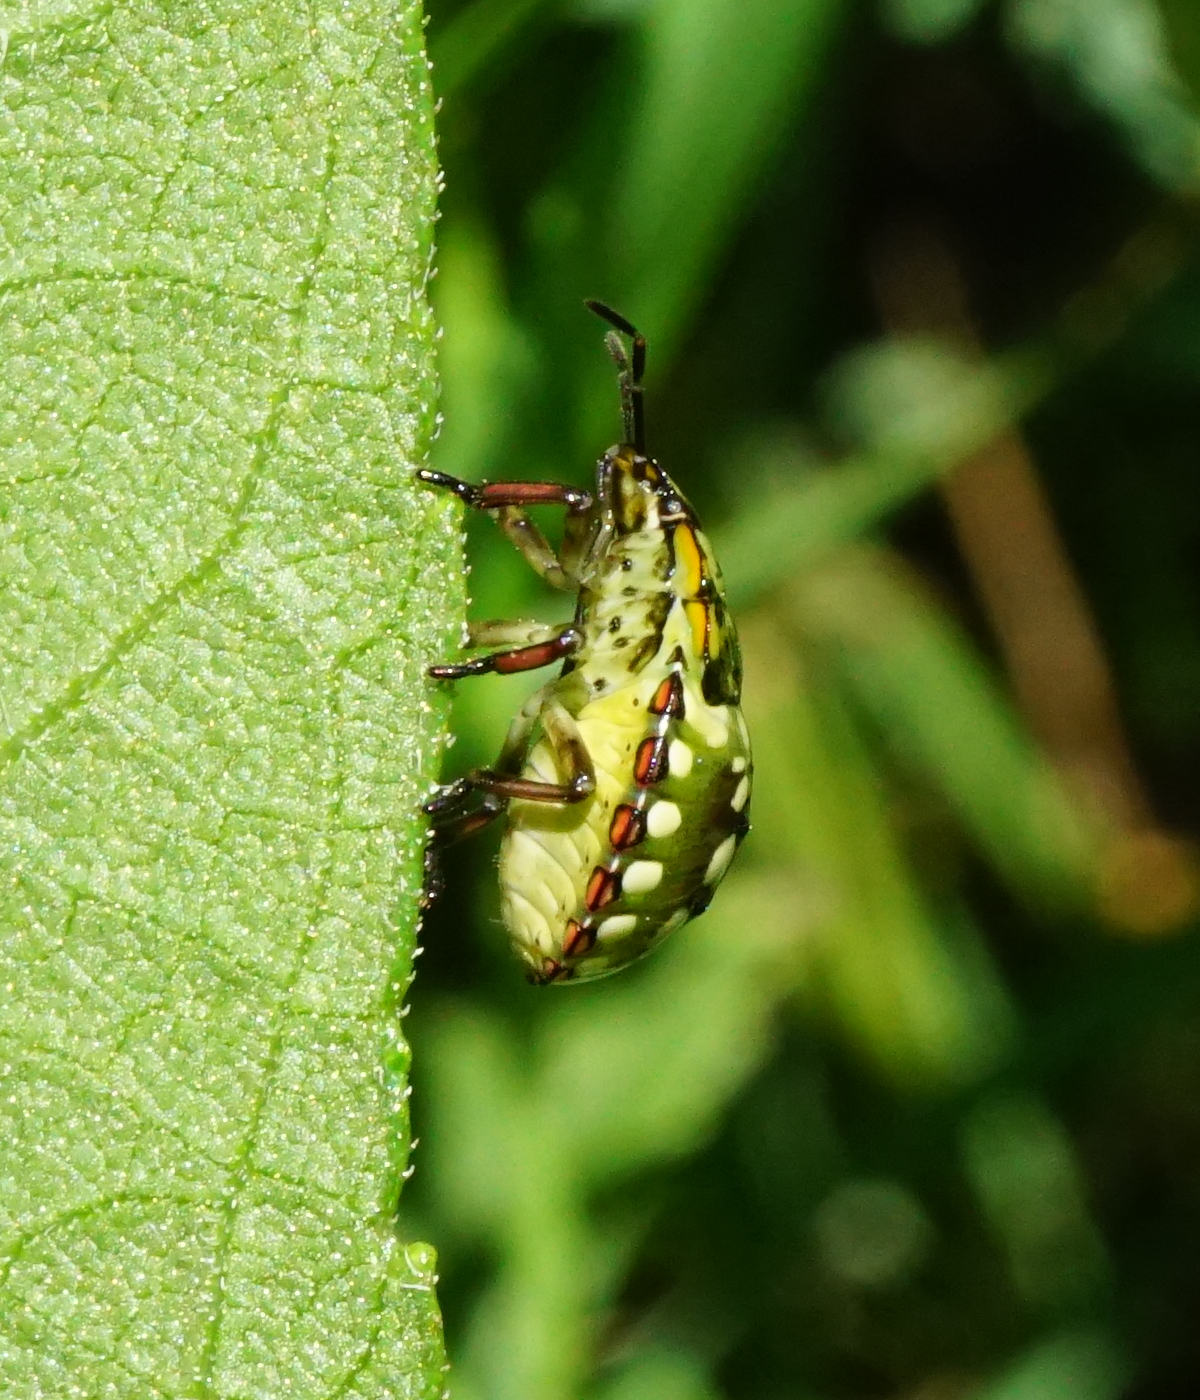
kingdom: Animalia
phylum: Arthropoda
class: Insecta
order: Hemiptera
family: Pentatomidae
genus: Nezara
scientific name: Nezara viridula
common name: Southern green stink bug
